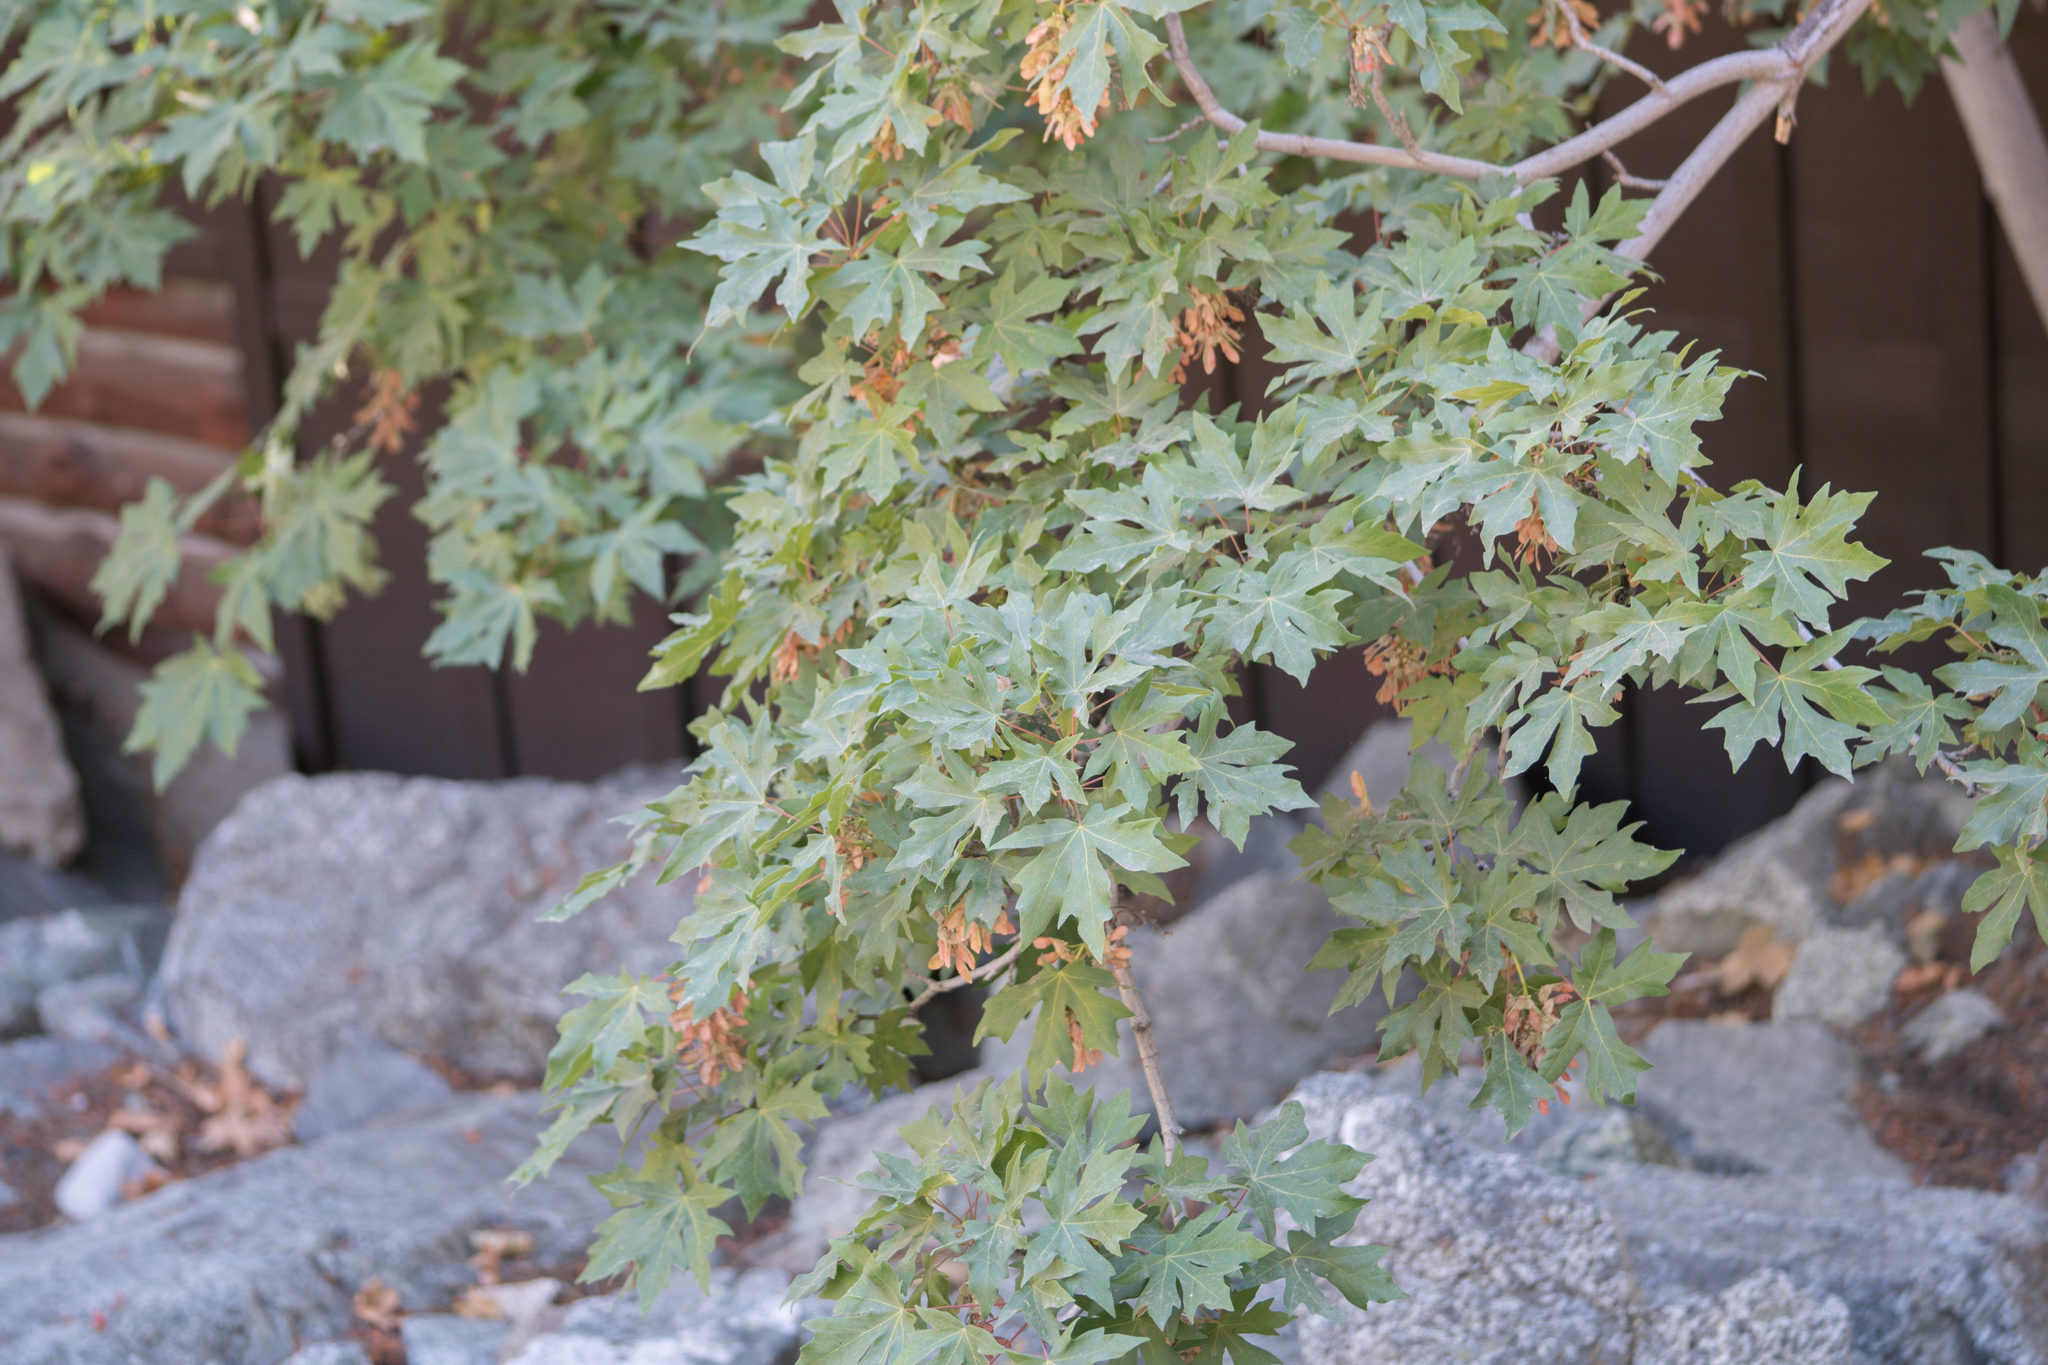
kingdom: Plantae
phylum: Tracheophyta
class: Magnoliopsida
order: Sapindales
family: Sapindaceae
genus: Acer
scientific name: Acer macrophyllum
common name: Oregon maple
